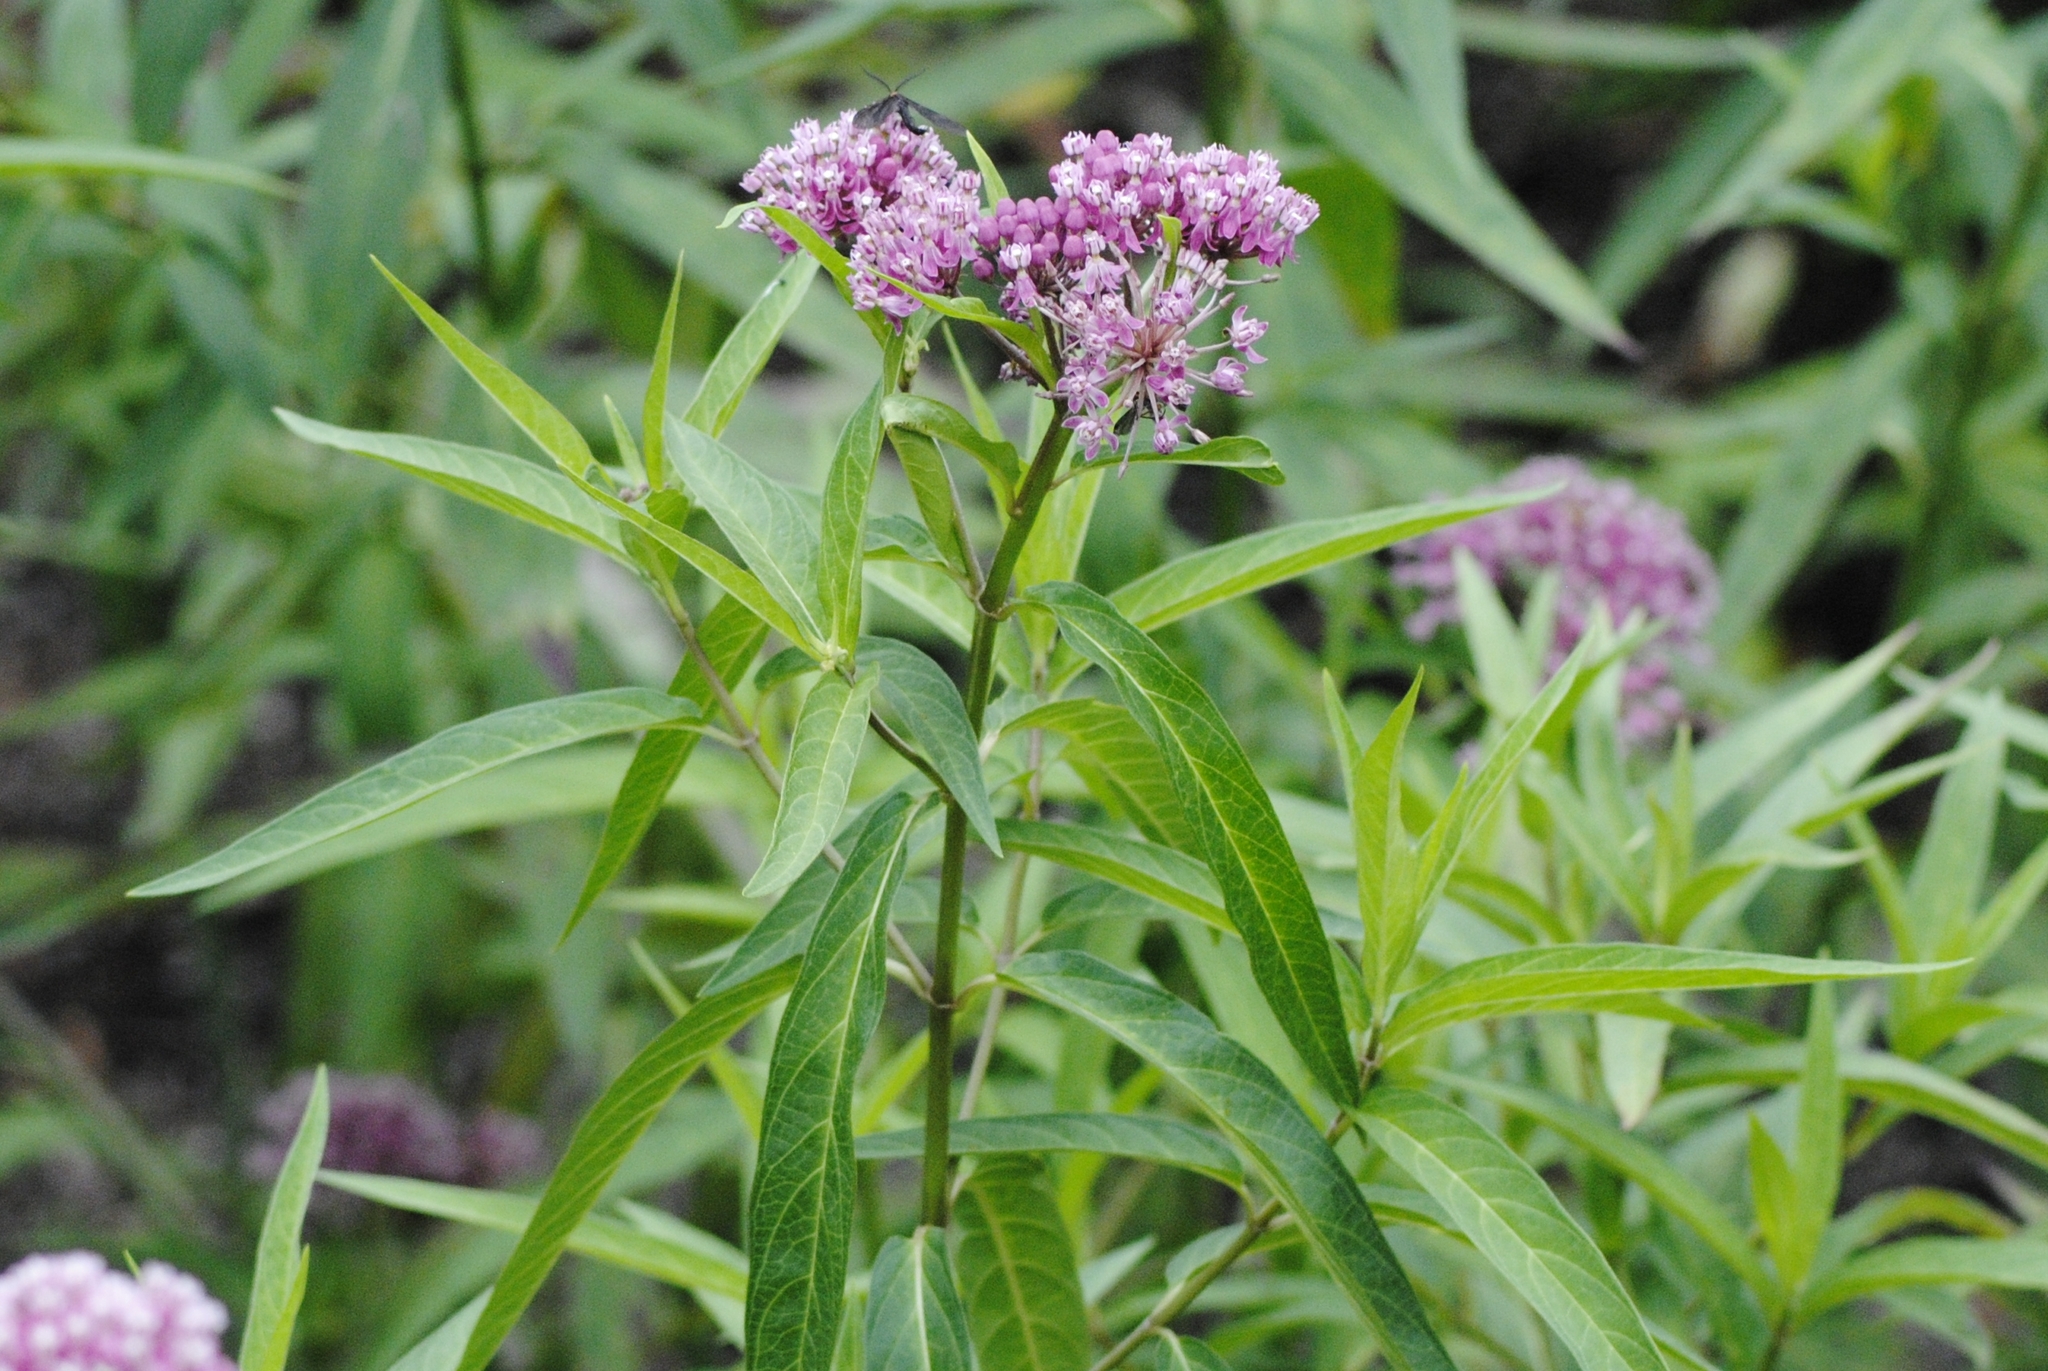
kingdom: Plantae
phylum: Tracheophyta
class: Magnoliopsida
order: Gentianales
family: Apocynaceae
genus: Asclepias
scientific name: Asclepias incarnata
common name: Swamp milkweed
